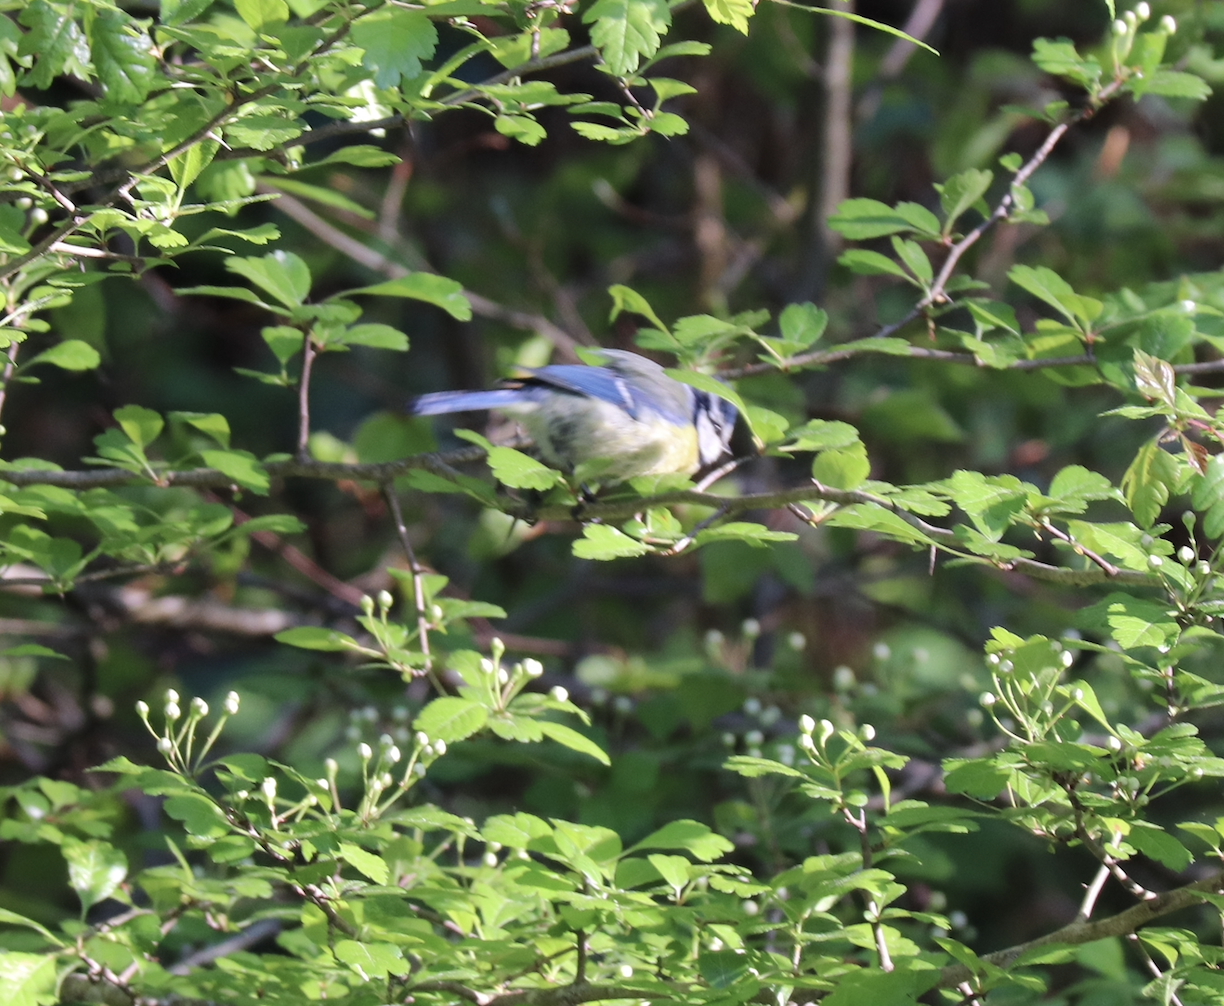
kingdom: Animalia
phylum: Chordata
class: Aves
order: Passeriformes
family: Paridae
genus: Cyanistes
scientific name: Cyanistes caeruleus
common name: Eurasian blue tit
